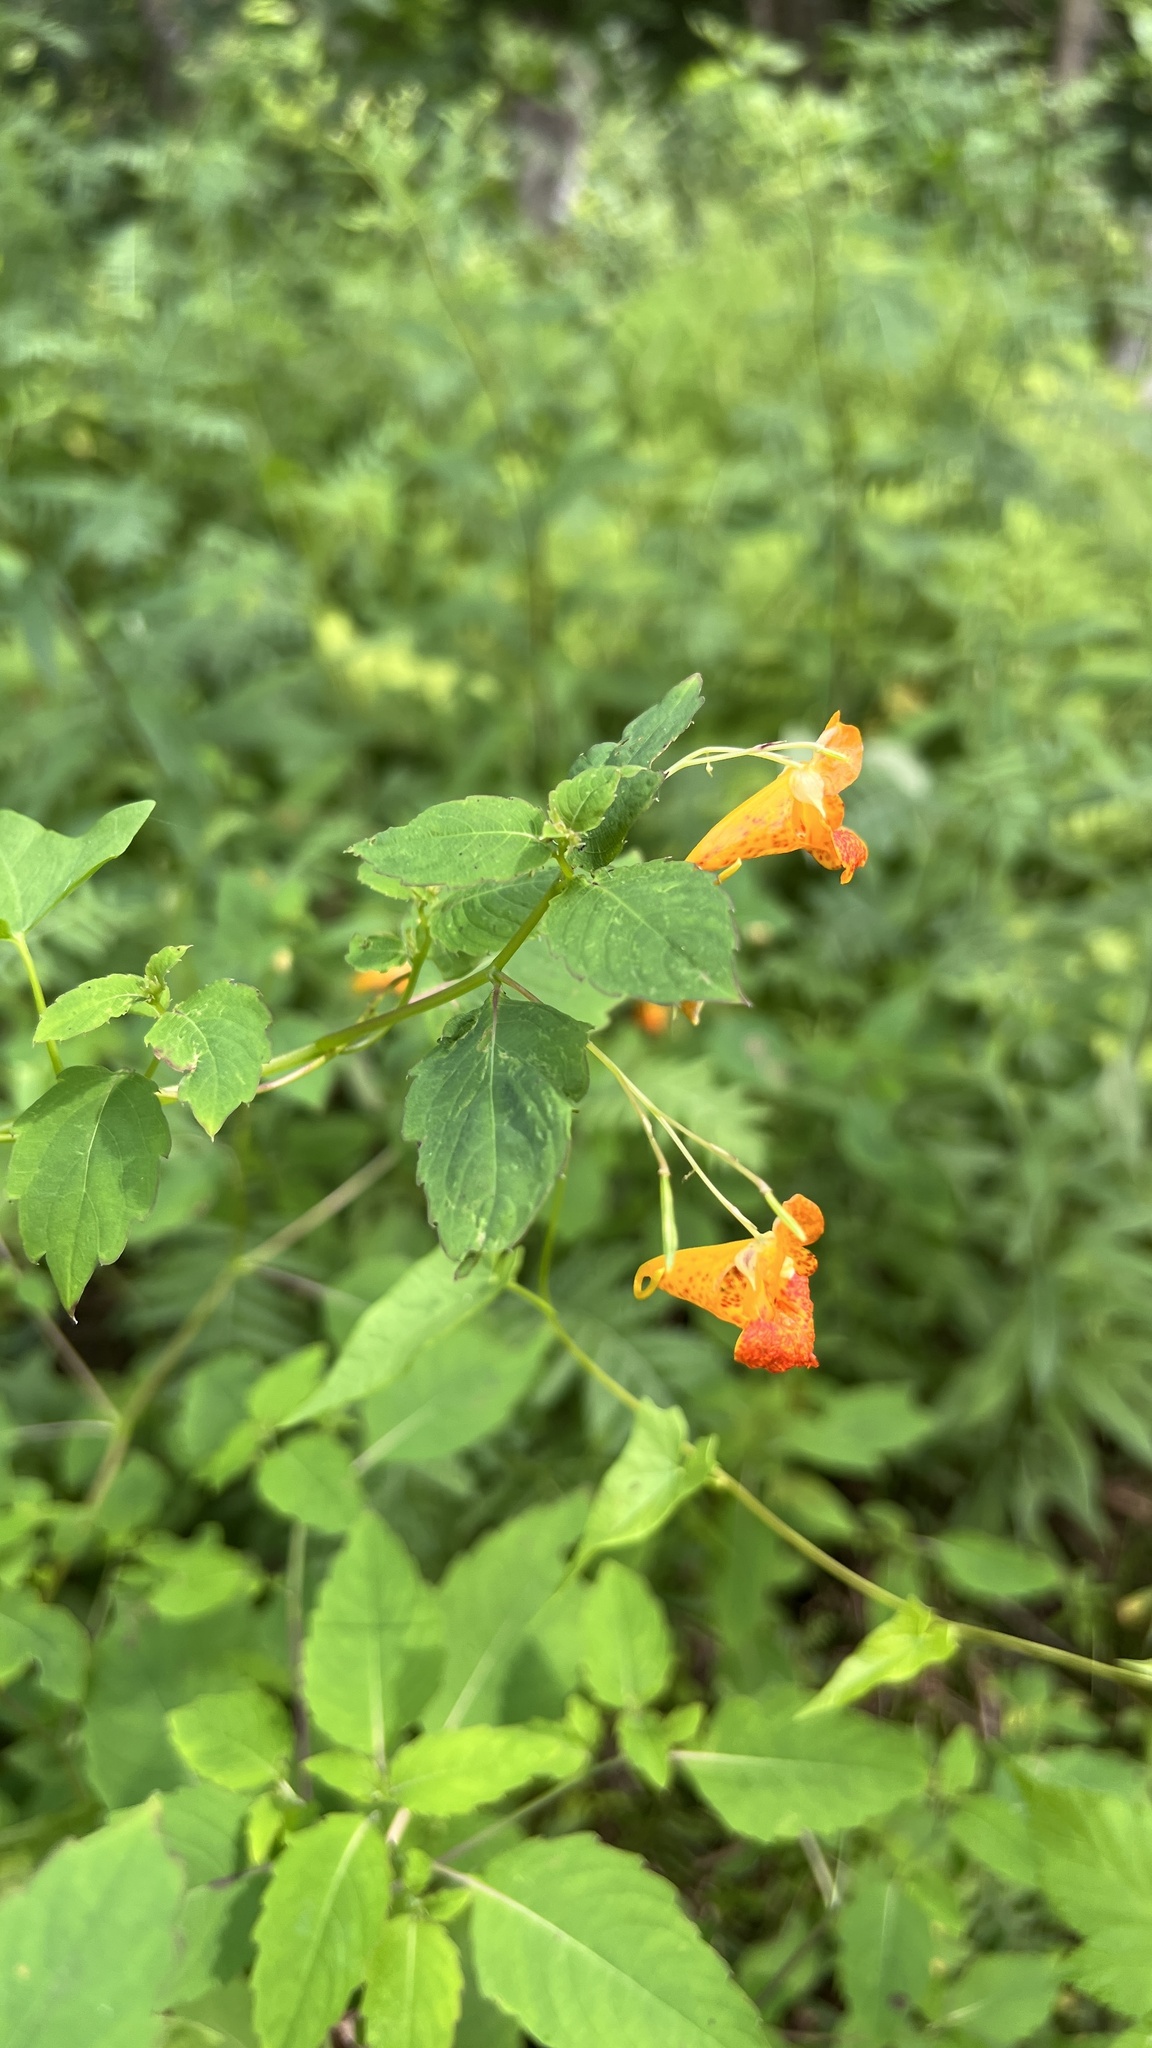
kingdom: Plantae
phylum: Tracheophyta
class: Magnoliopsida
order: Ericales
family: Balsaminaceae
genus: Impatiens
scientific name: Impatiens capensis
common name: Orange balsam
